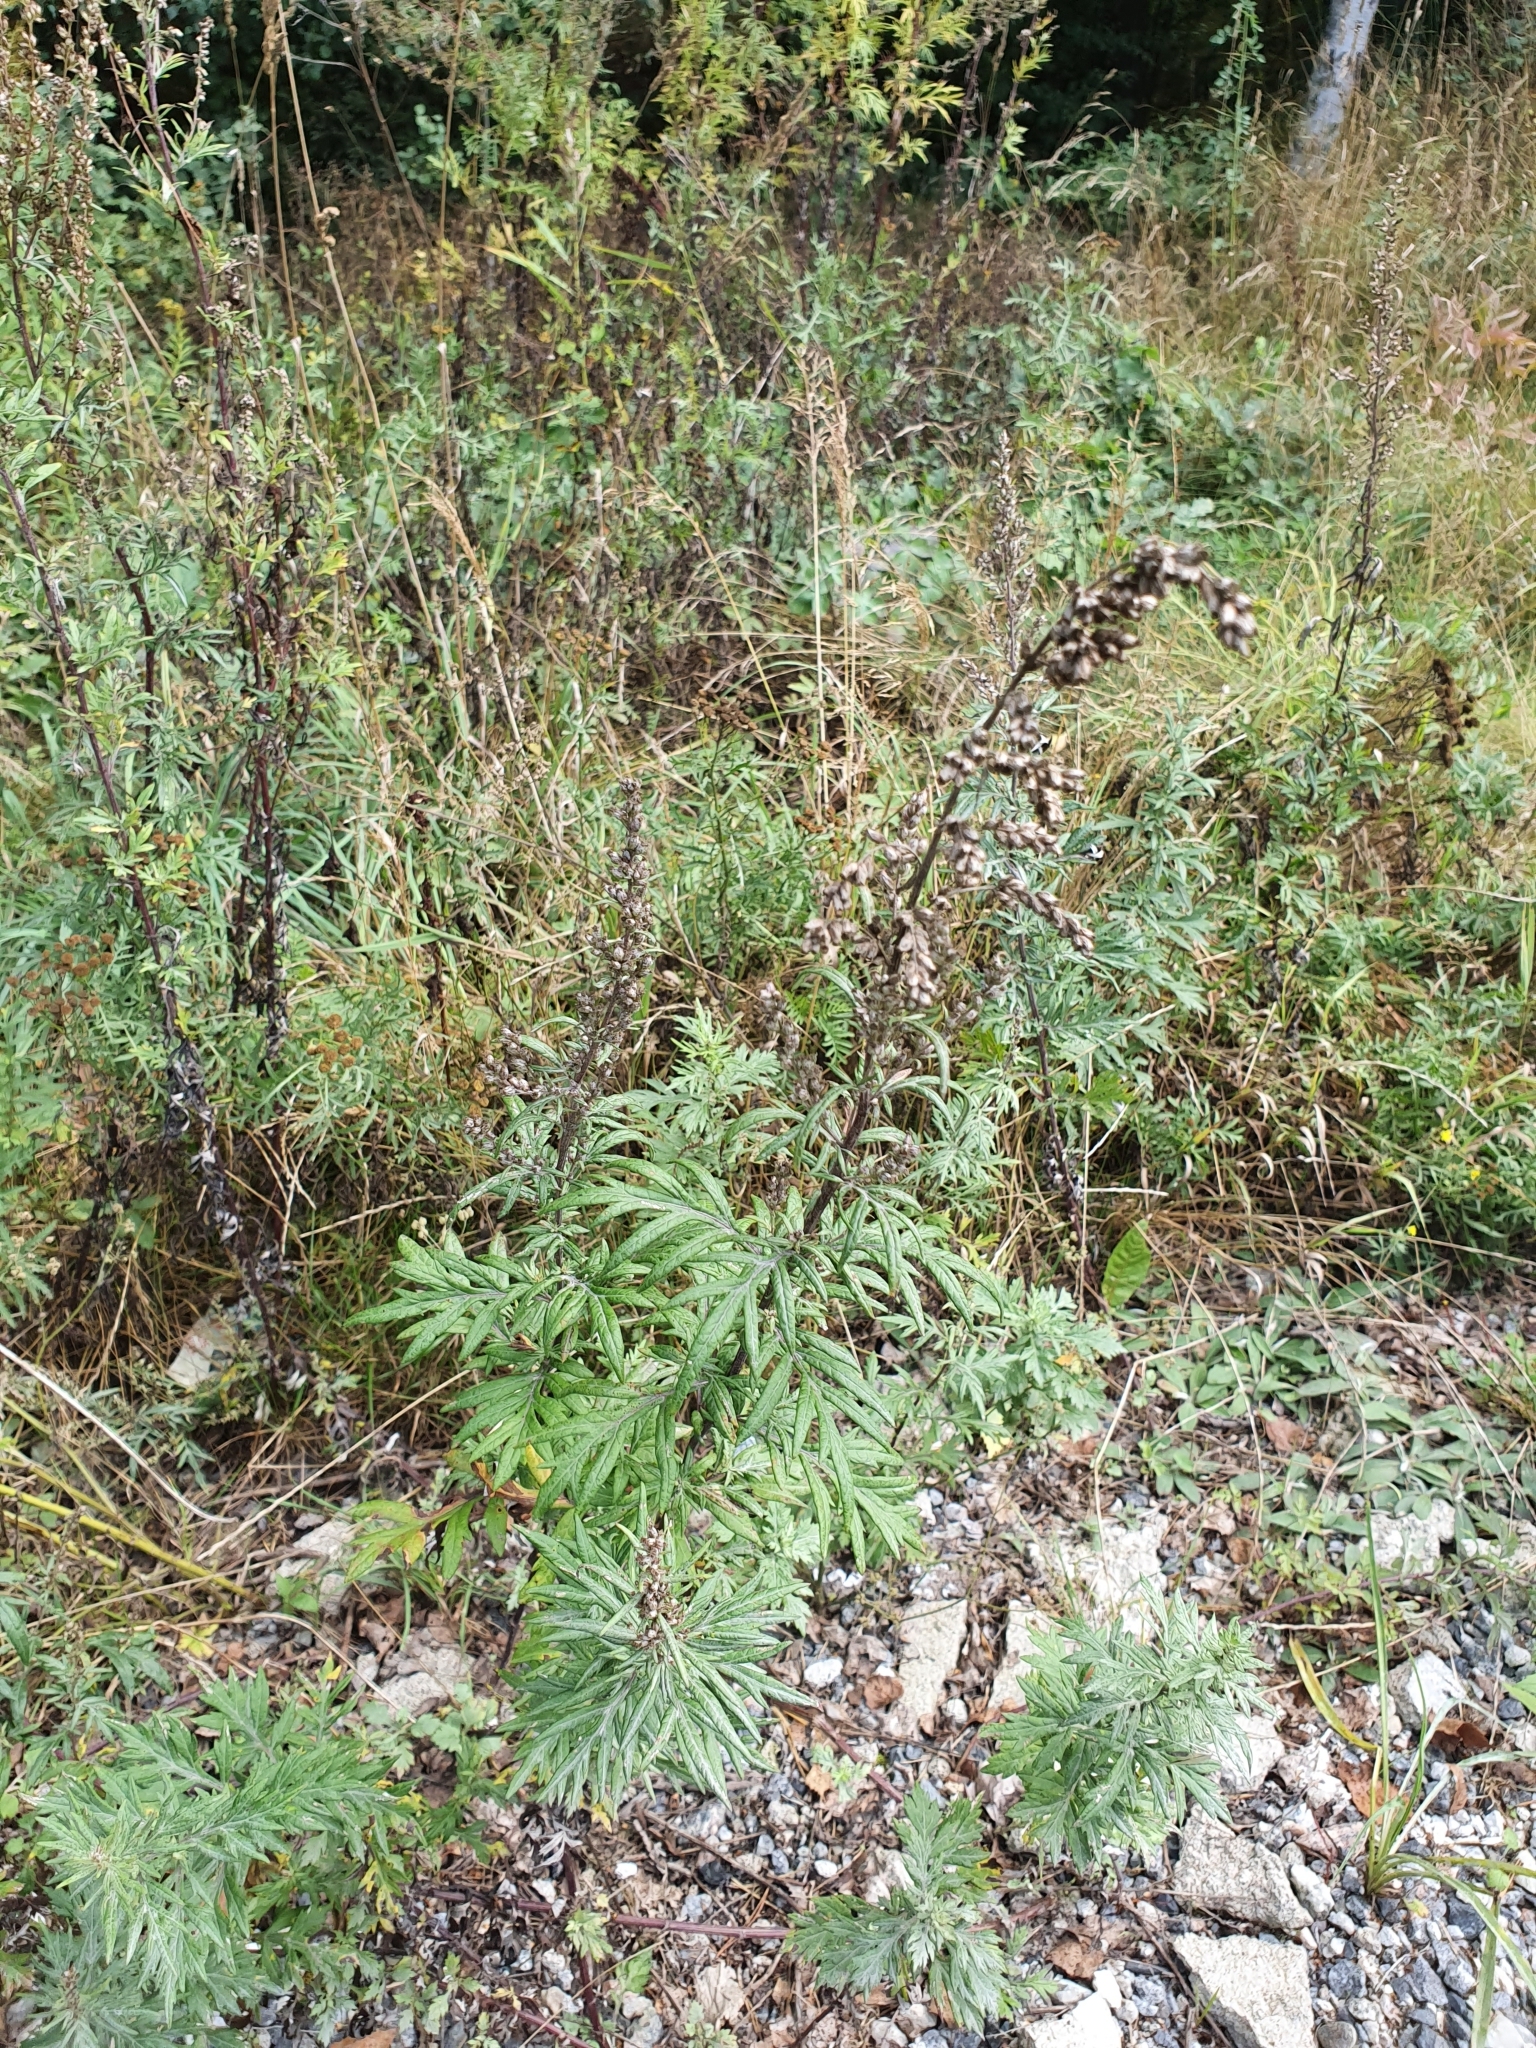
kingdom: Plantae
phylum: Tracheophyta
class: Magnoliopsida
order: Asterales
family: Asteraceae
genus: Artemisia
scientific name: Artemisia vulgaris
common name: Mugwort
